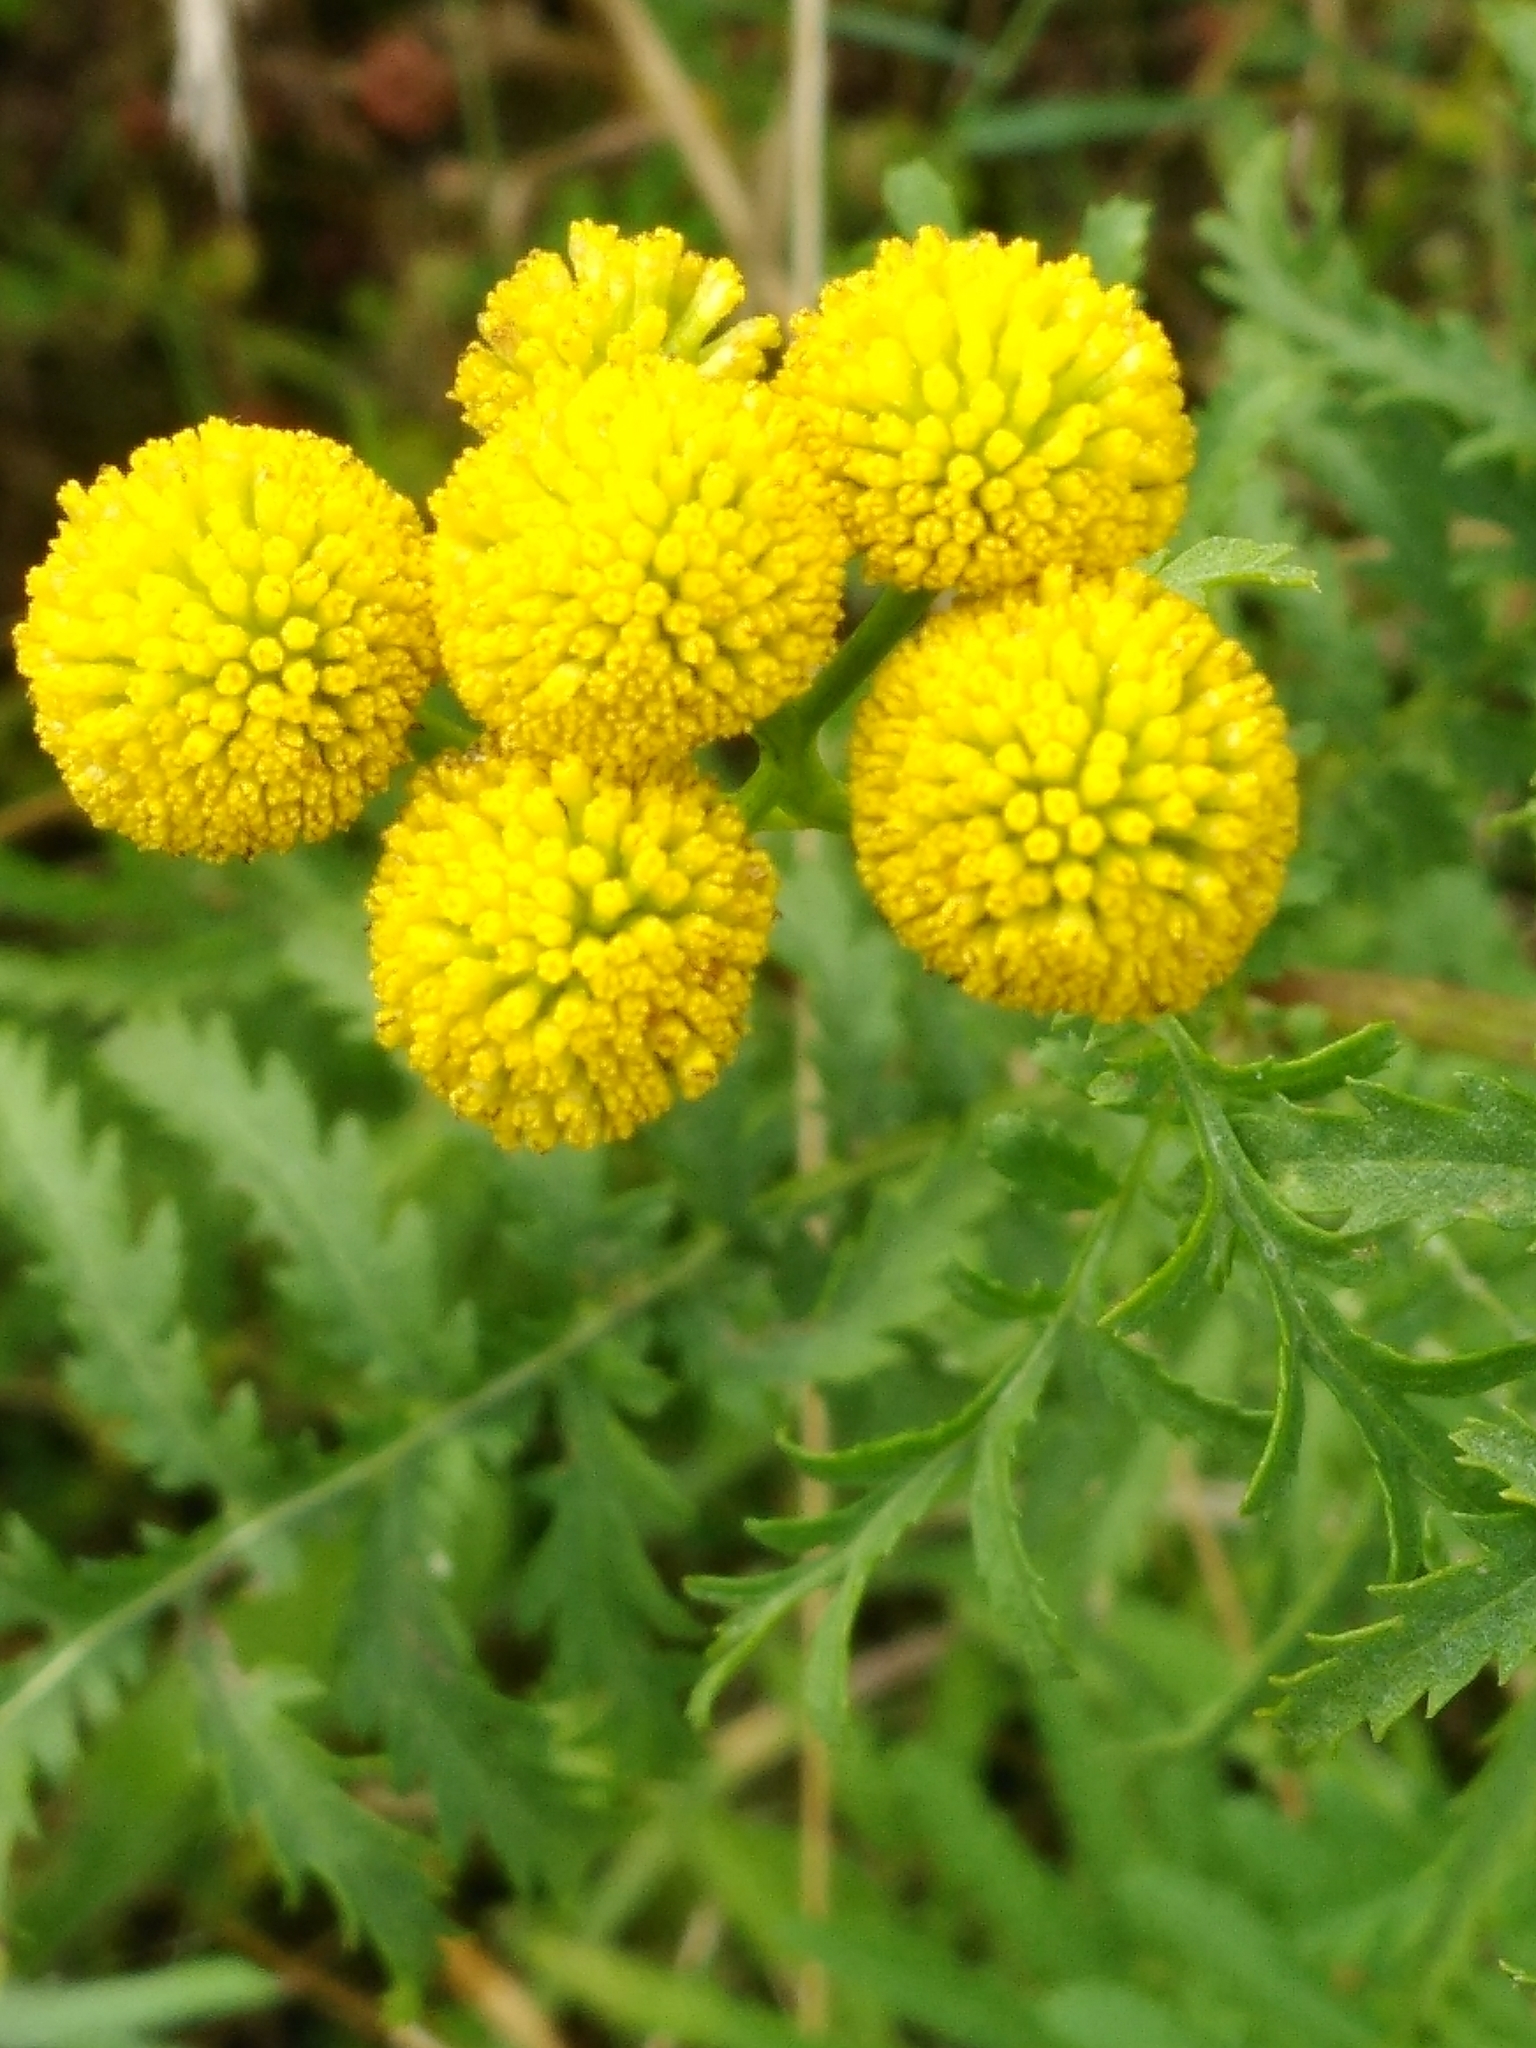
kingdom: Plantae
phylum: Tracheophyta
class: Magnoliopsida
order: Asterales
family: Asteraceae
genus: Tanacetum
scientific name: Tanacetum vulgare
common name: Common tansy
